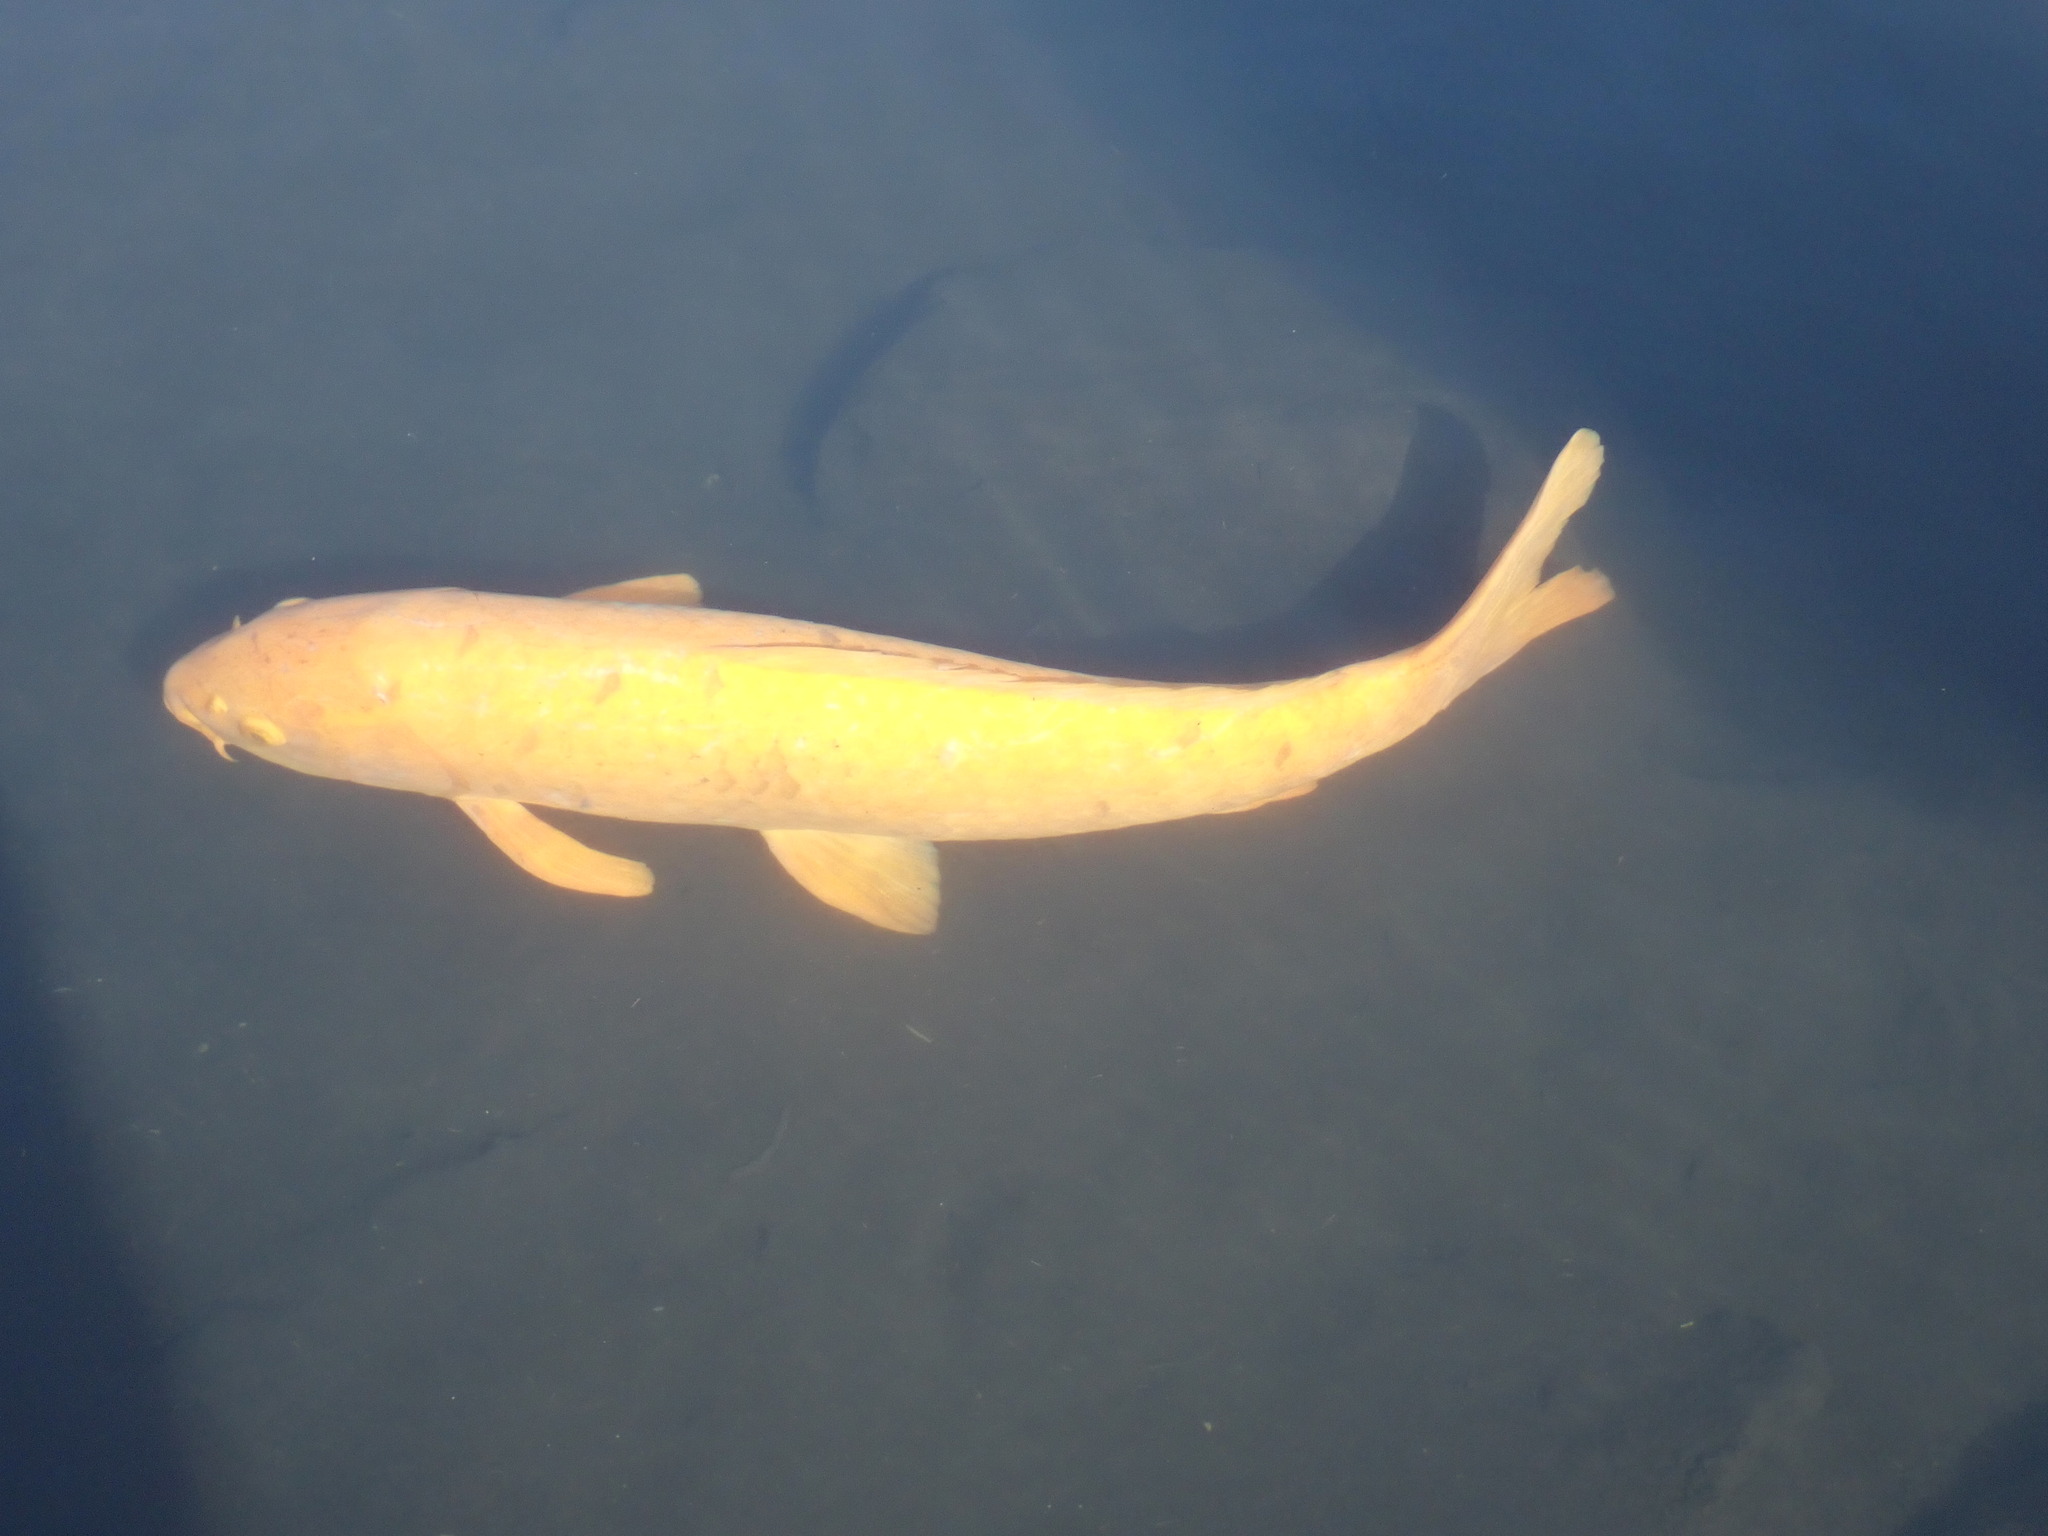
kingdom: Animalia
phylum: Chordata
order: Cypriniformes
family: Cyprinidae
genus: Cyprinus
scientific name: Cyprinus rubrofuscus
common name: Koi
